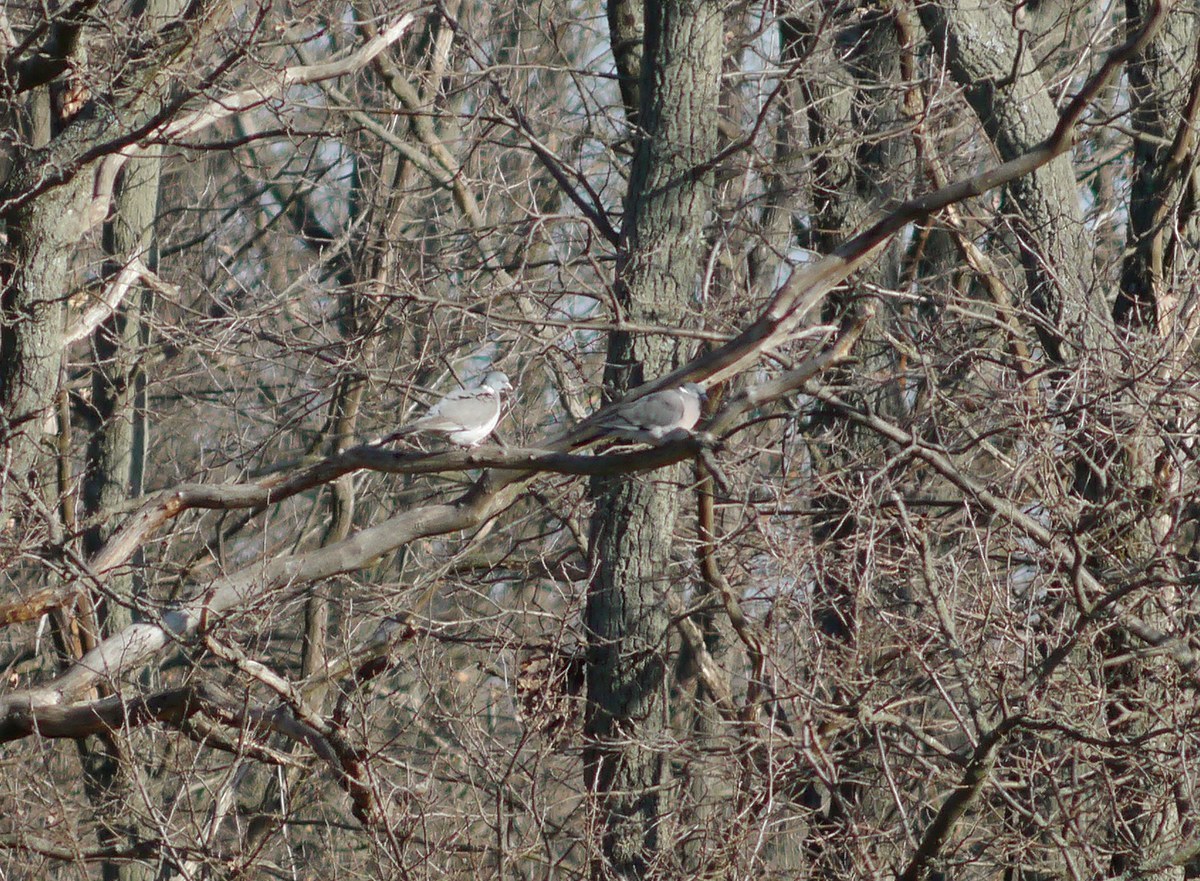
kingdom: Animalia
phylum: Chordata
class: Aves
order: Columbiformes
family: Columbidae
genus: Columba
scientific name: Columba palumbus
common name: Common wood pigeon
